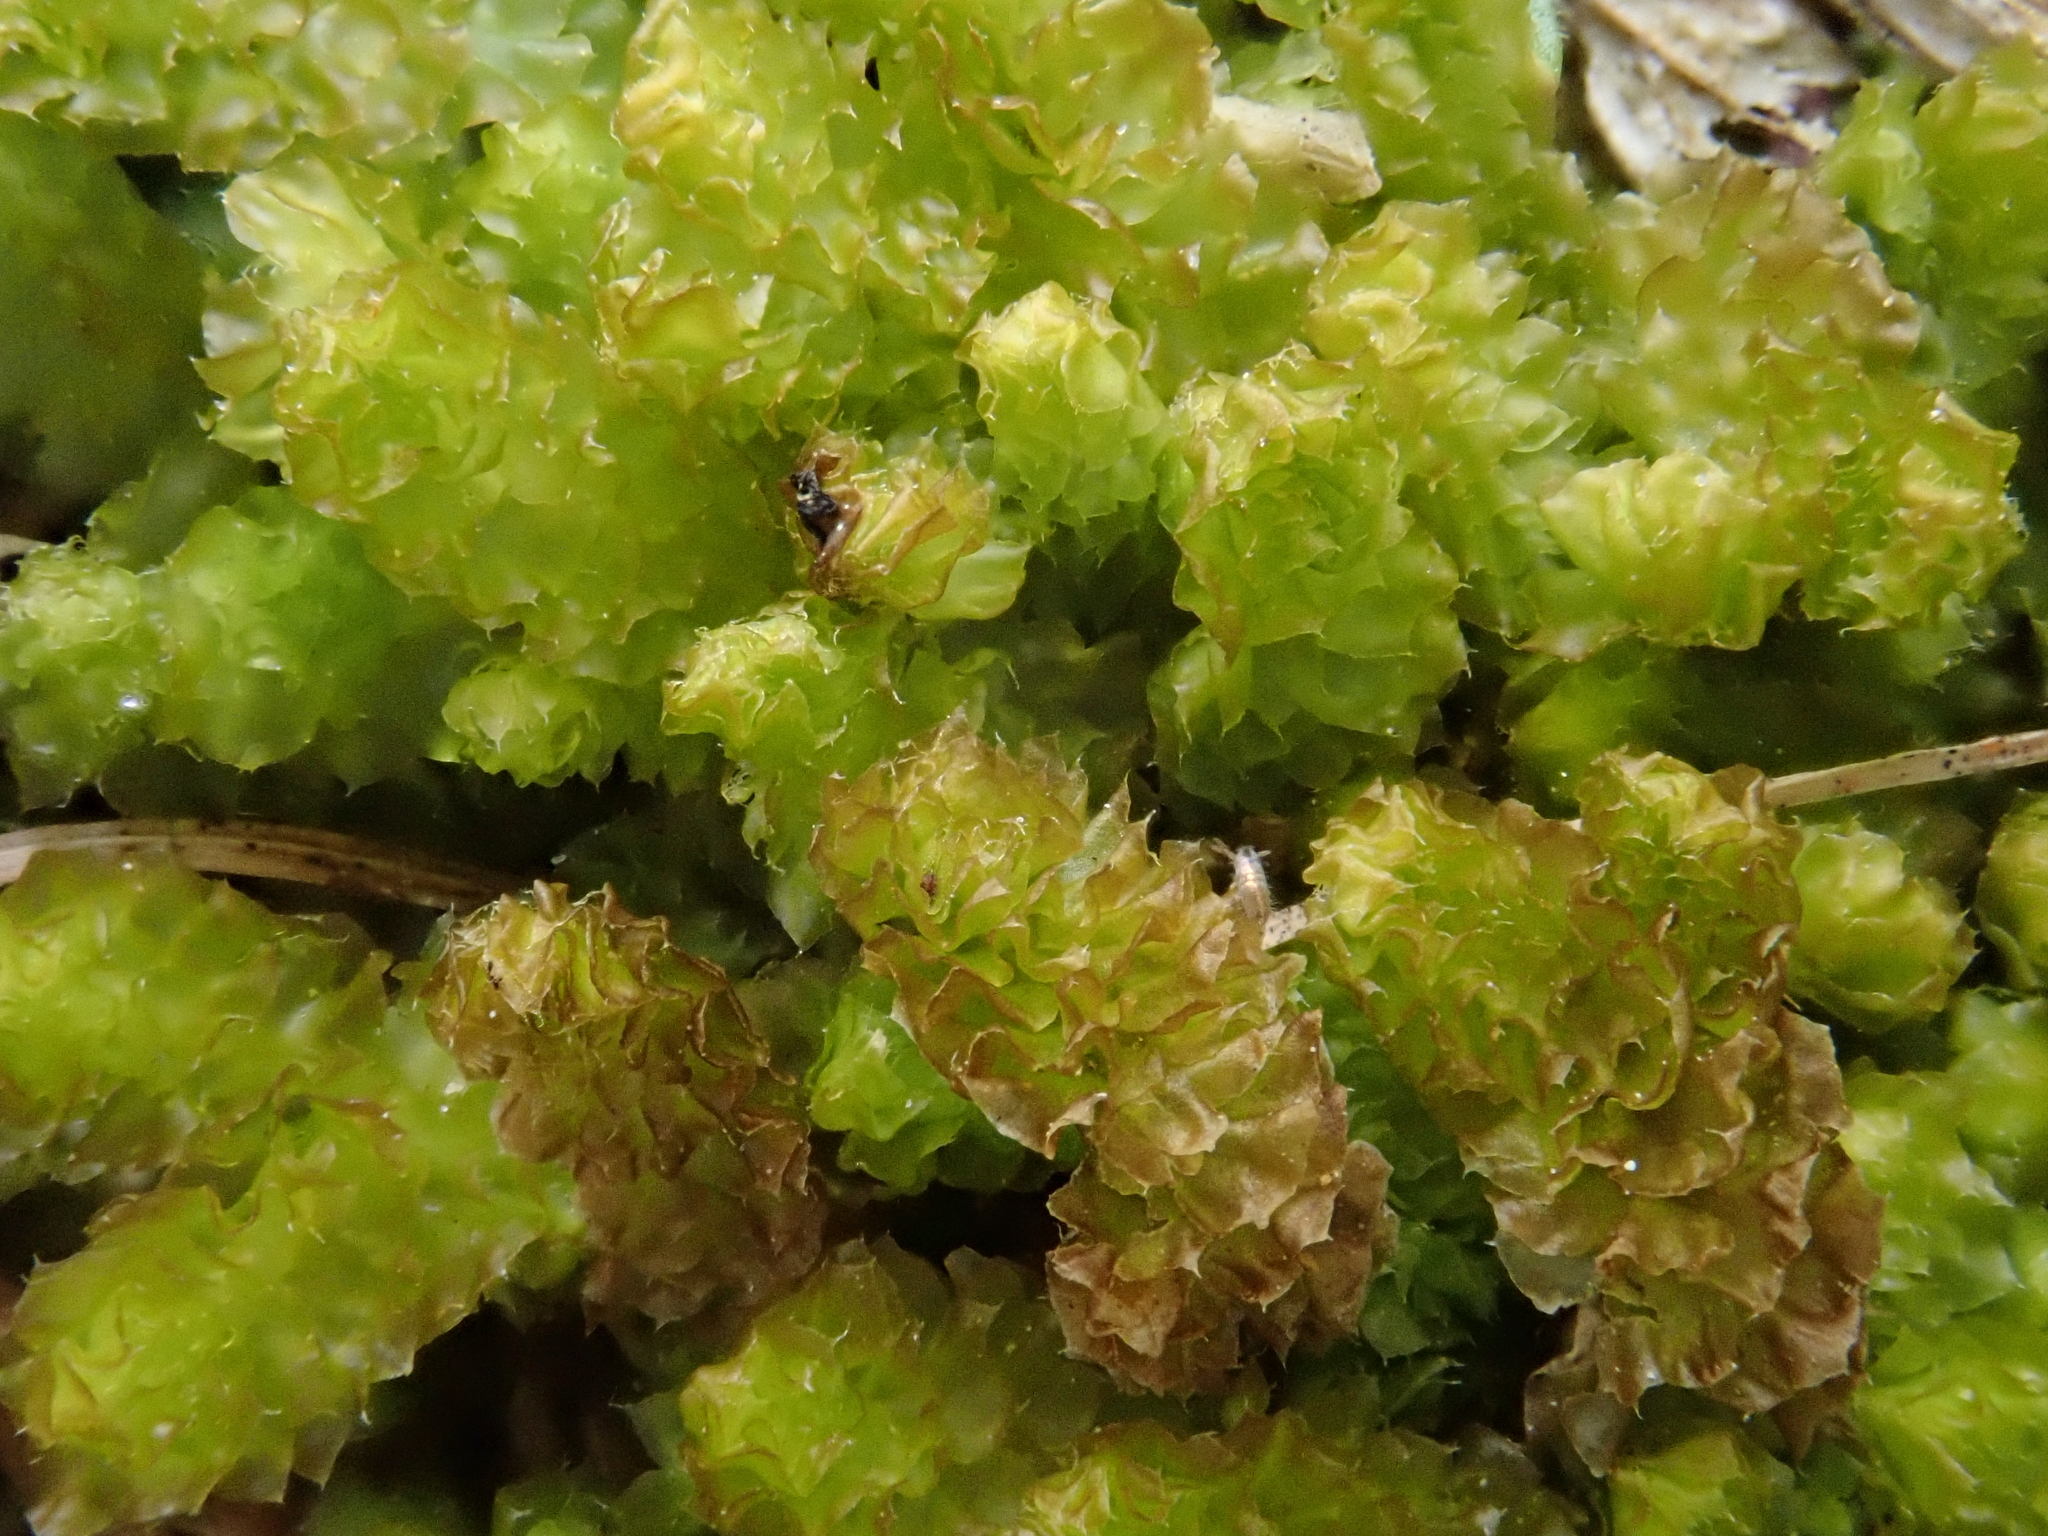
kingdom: Plantae
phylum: Marchantiophyta
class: Jungermanniopsida
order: Jungermanniales
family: Anastrophyllaceae
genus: Barbilophozia
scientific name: Barbilophozia lycopodioides
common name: Greater pawwort
